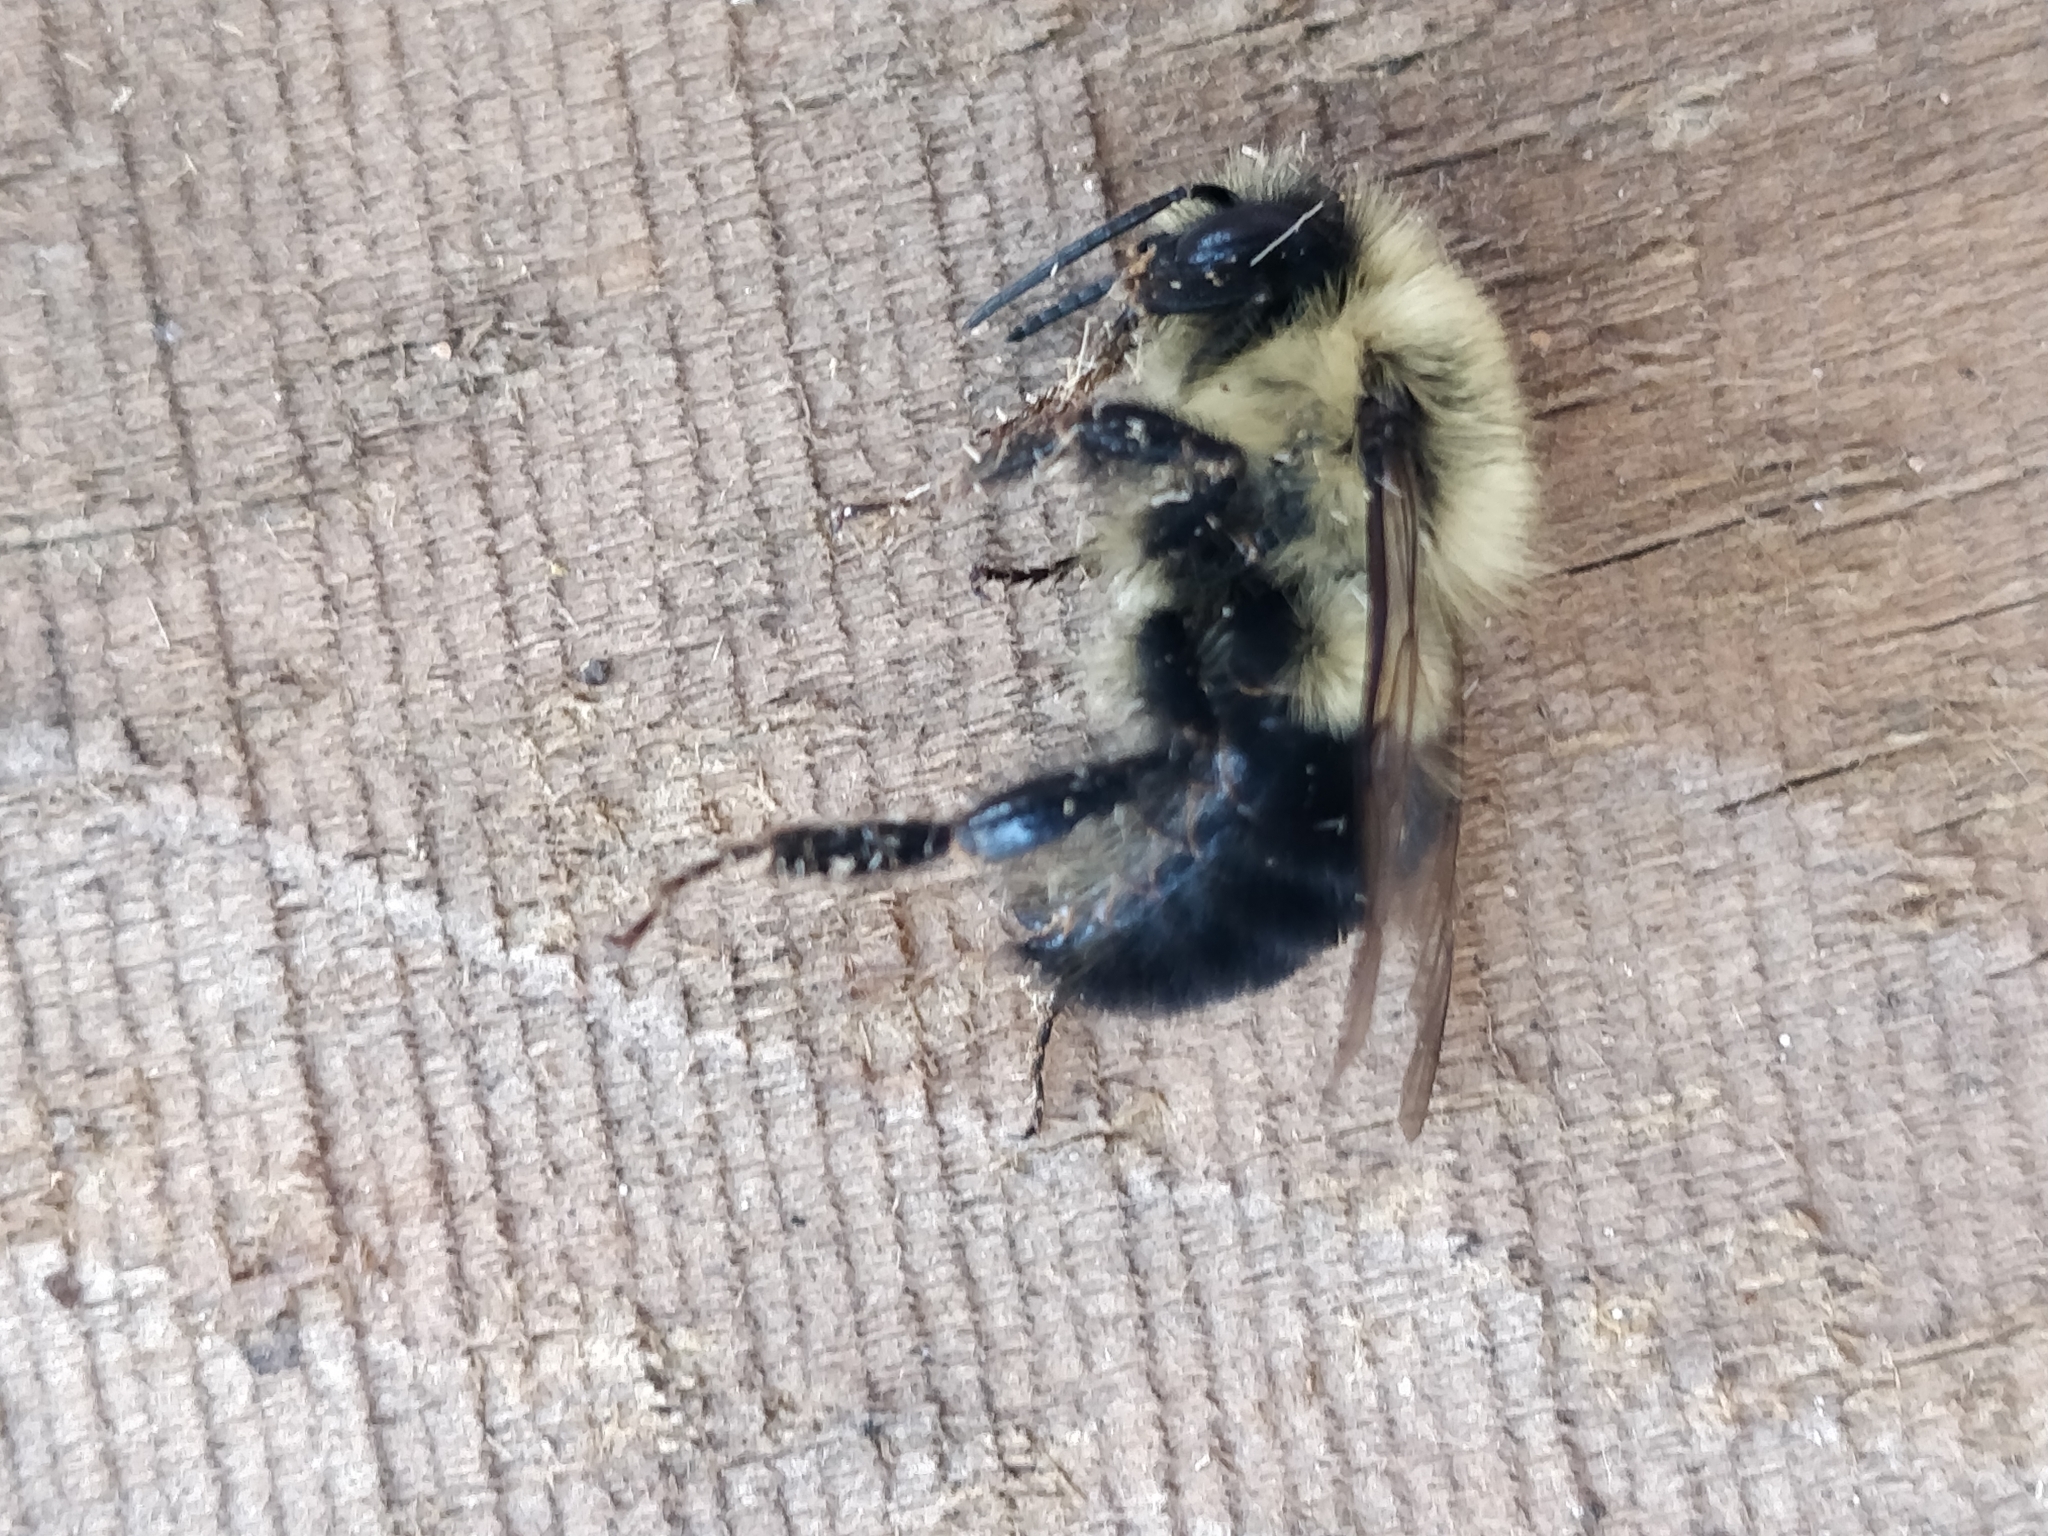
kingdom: Animalia
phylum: Arthropoda
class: Insecta
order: Hymenoptera
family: Apidae
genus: Bombus
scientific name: Bombus impatiens
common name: Common eastern bumble bee
